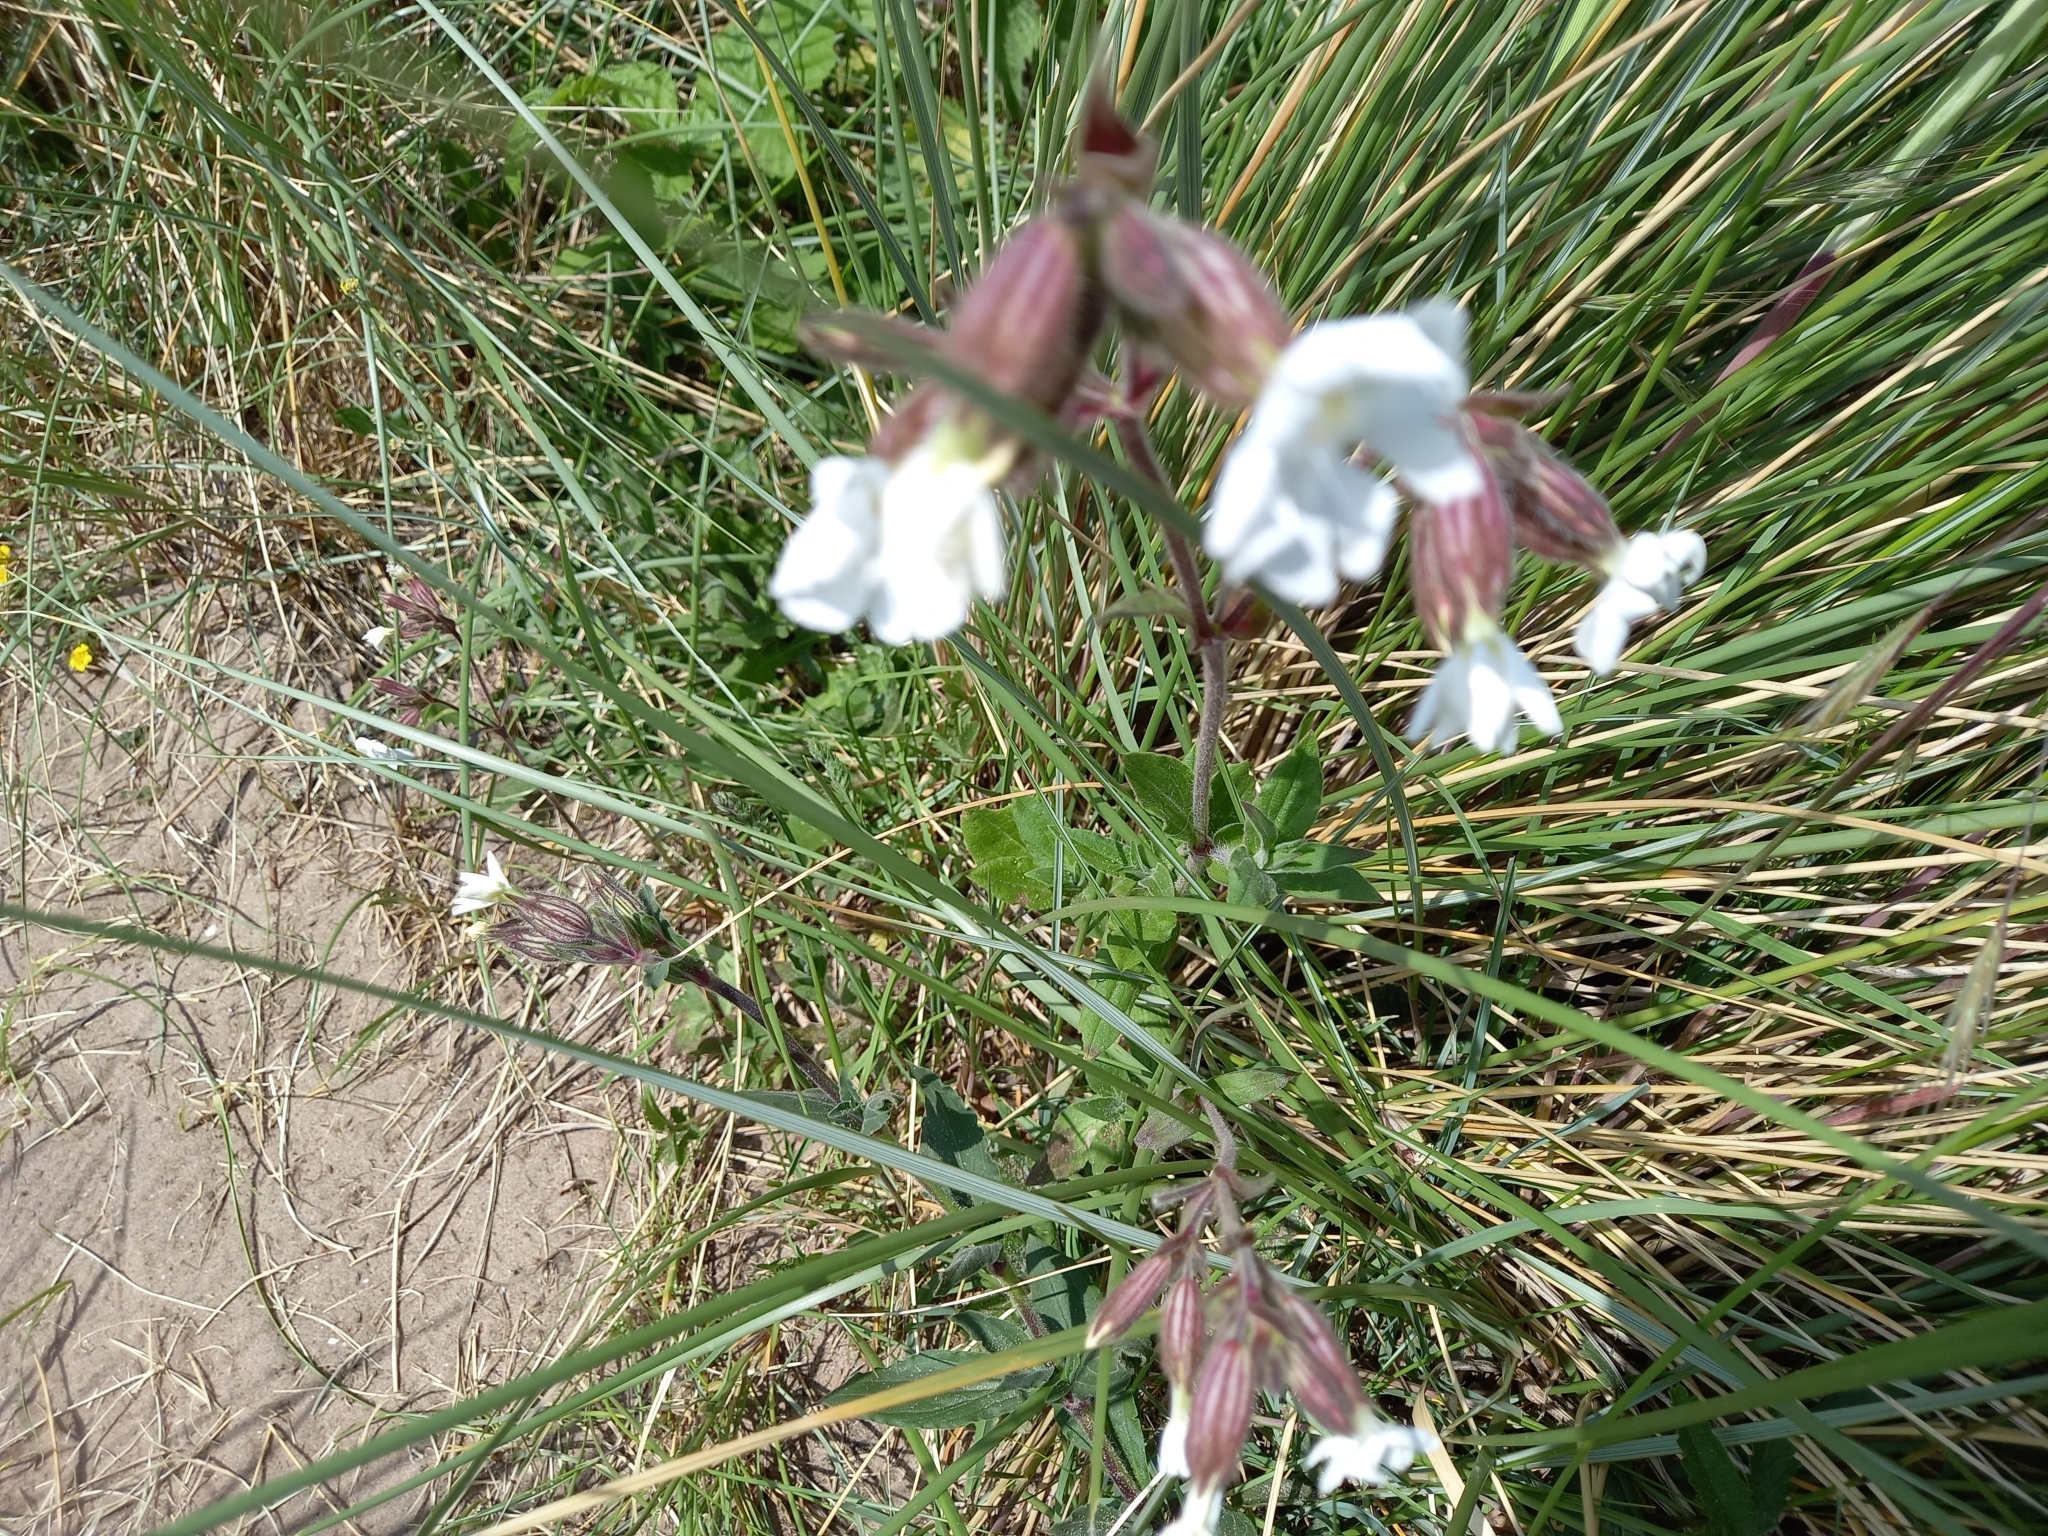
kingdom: Plantae
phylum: Tracheophyta
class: Magnoliopsida
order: Caryophyllales
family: Caryophyllaceae
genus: Silene
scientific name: Silene latifolia
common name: White campion
